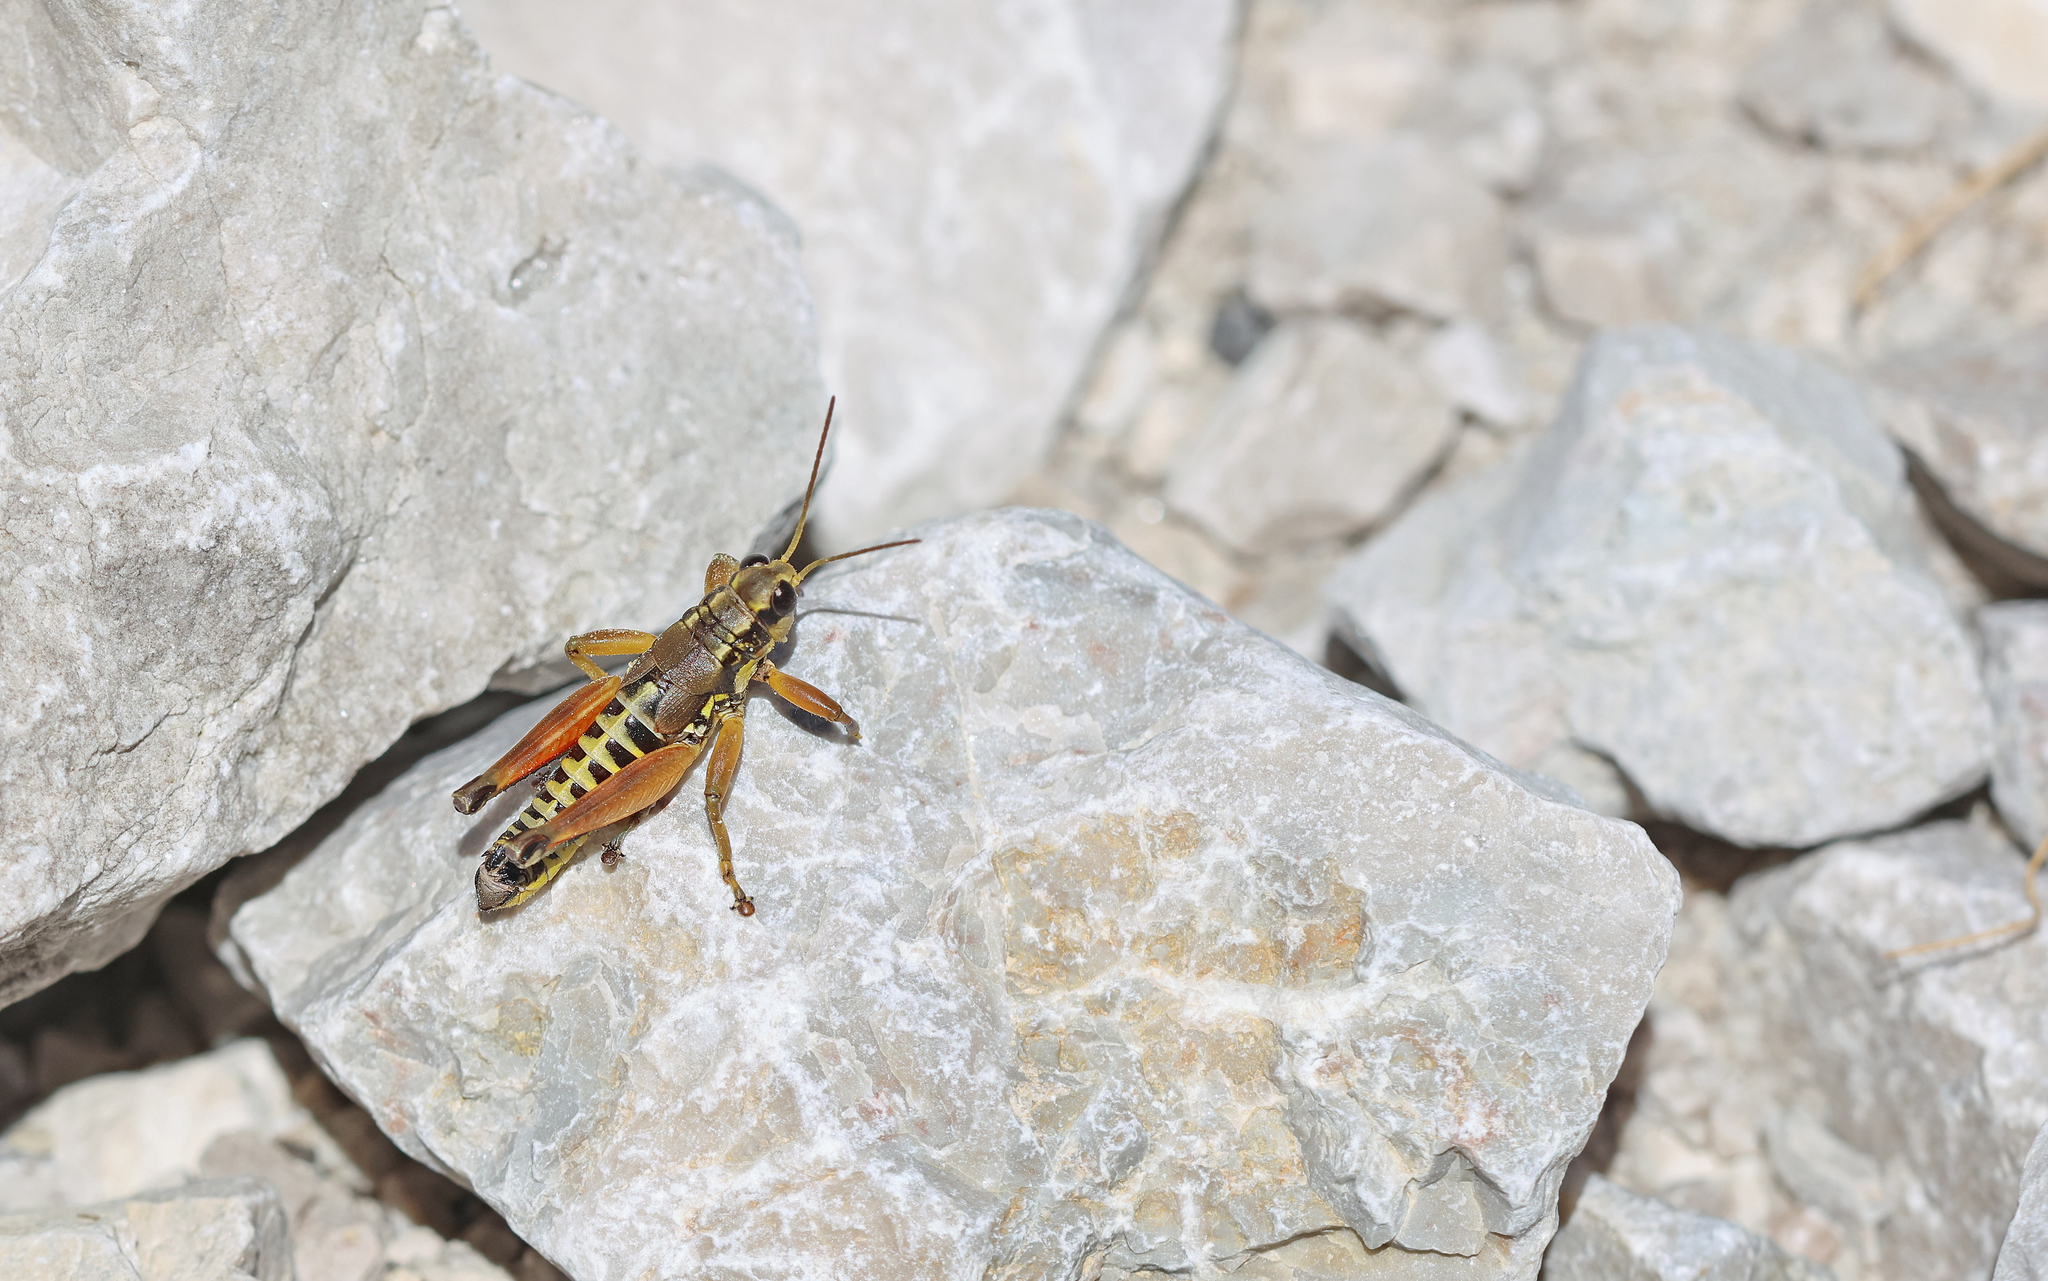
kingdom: Animalia
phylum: Arthropoda
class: Insecta
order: Orthoptera
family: Acrididae
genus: Podisma
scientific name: Podisma pedestris
